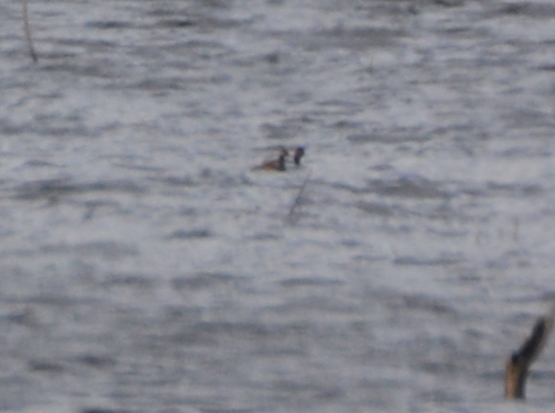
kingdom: Animalia
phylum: Chordata
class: Aves
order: Podicipediformes
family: Podicipedidae
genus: Podiceps
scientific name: Podiceps nigricollis
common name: Black-necked grebe
